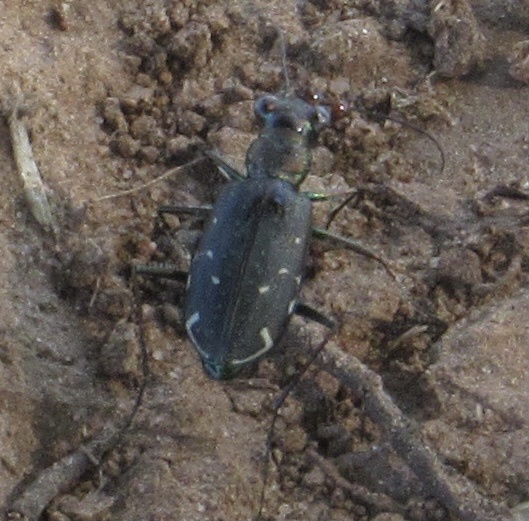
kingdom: Animalia
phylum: Arthropoda
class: Insecta
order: Coleoptera
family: Carabidae
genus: Cicindela
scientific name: Cicindela punctulata
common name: Punctured tiger beetle
